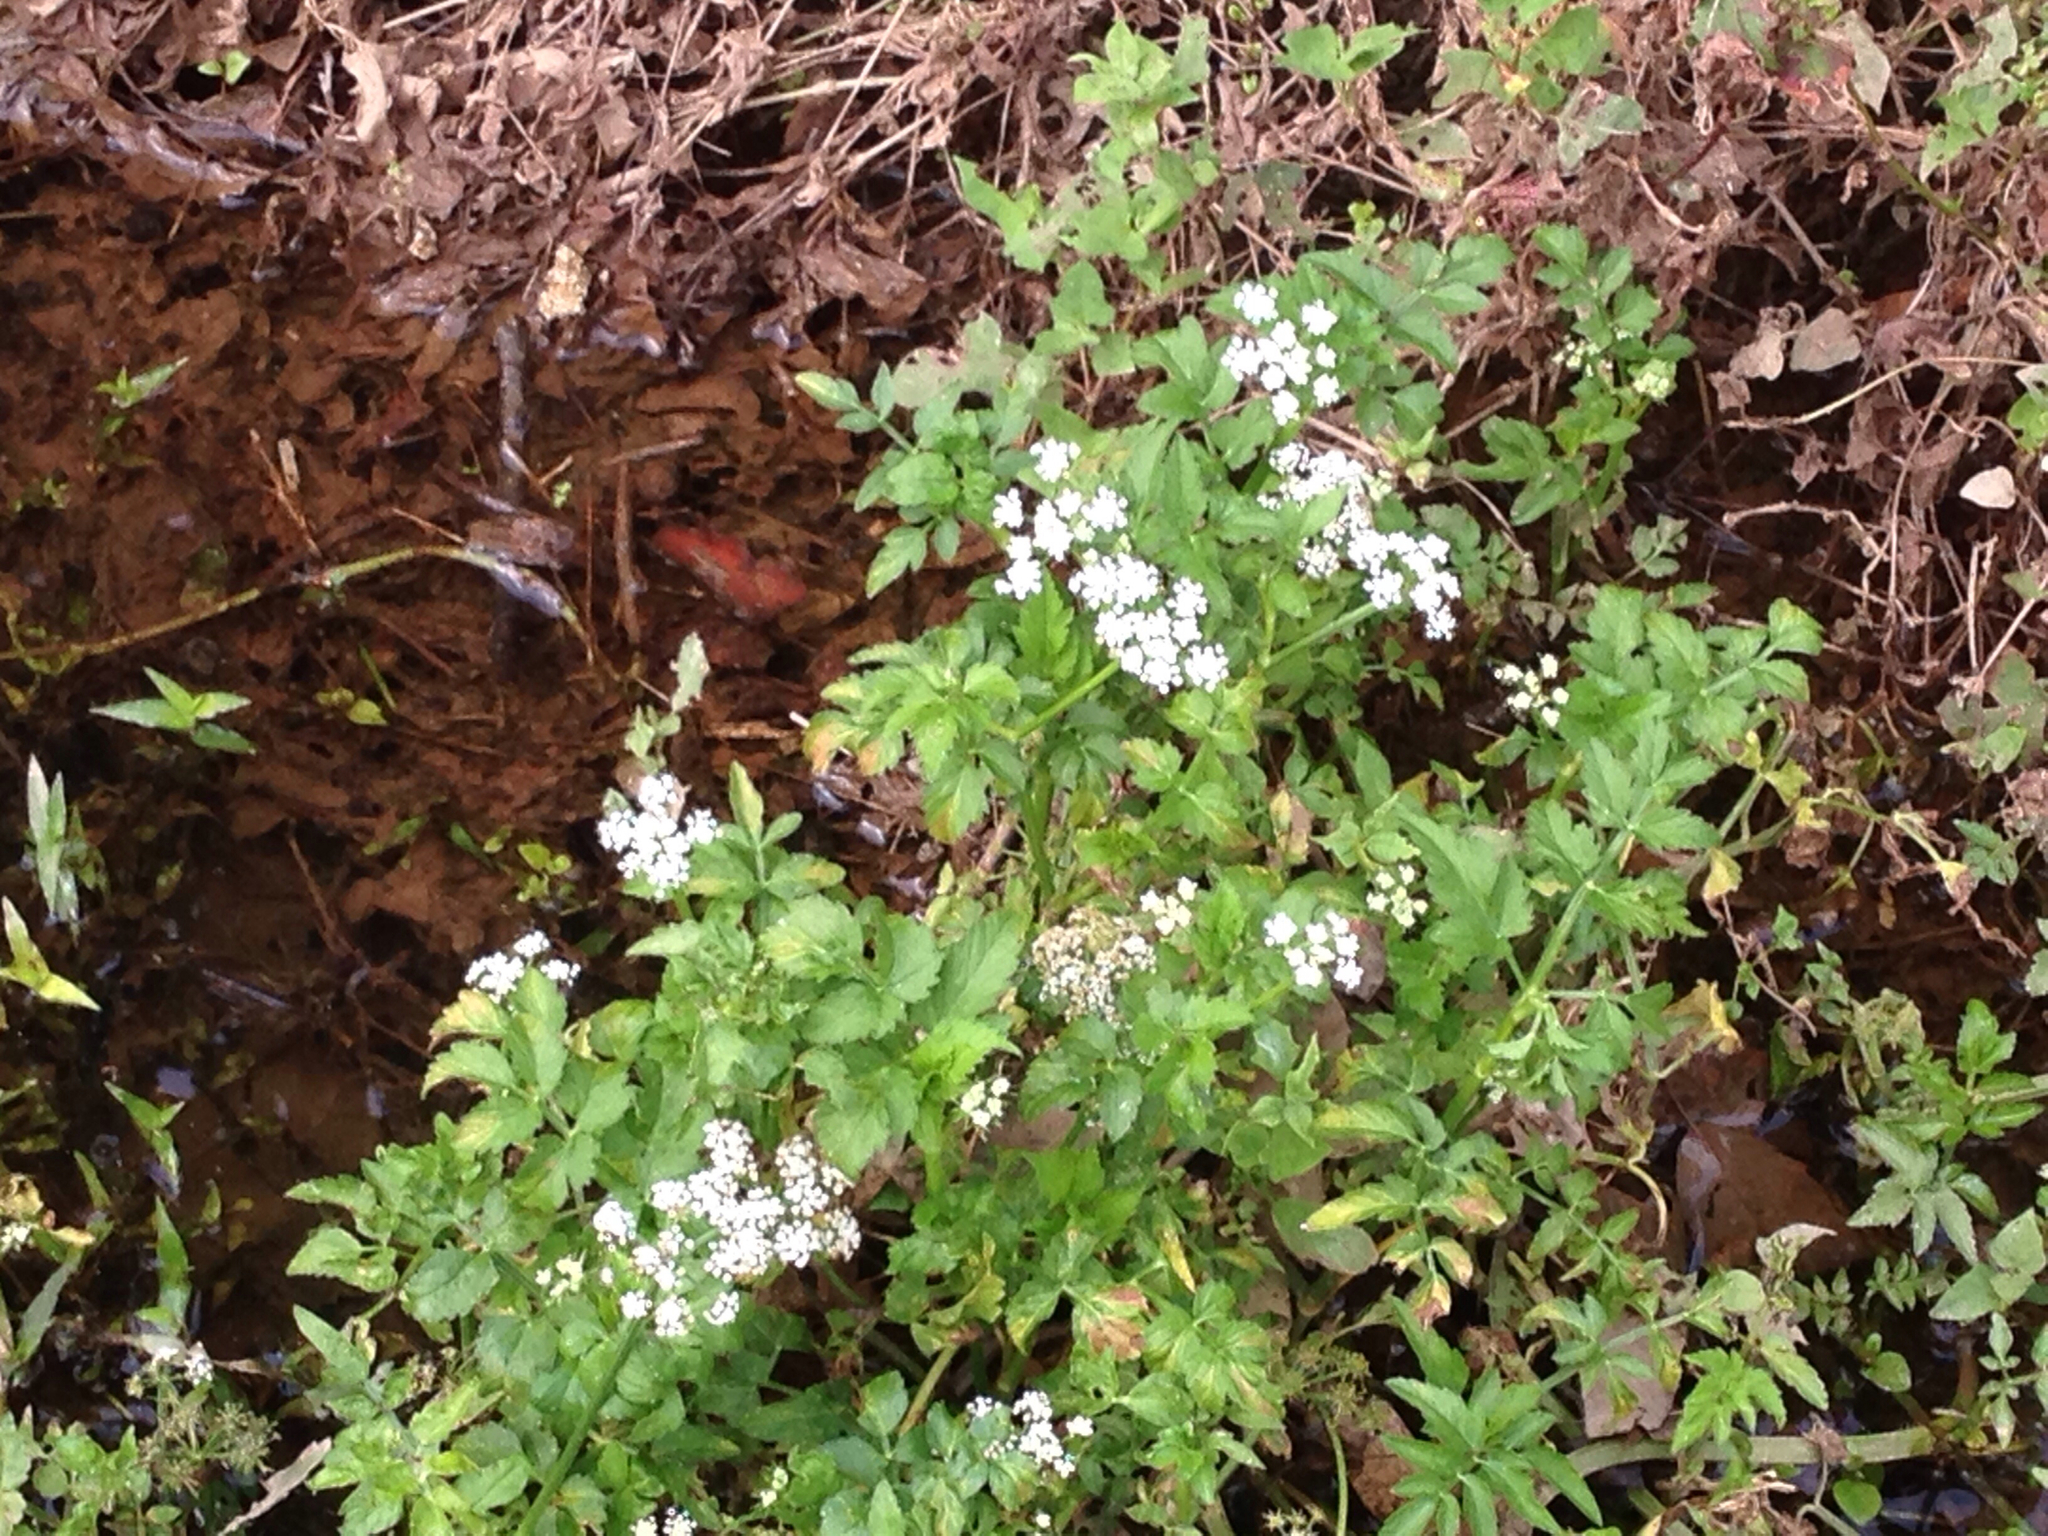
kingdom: Plantae
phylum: Tracheophyta
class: Magnoliopsida
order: Apiales
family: Apiaceae
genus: Oenanthe
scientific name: Oenanthe javanica
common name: Java water-dropwort
